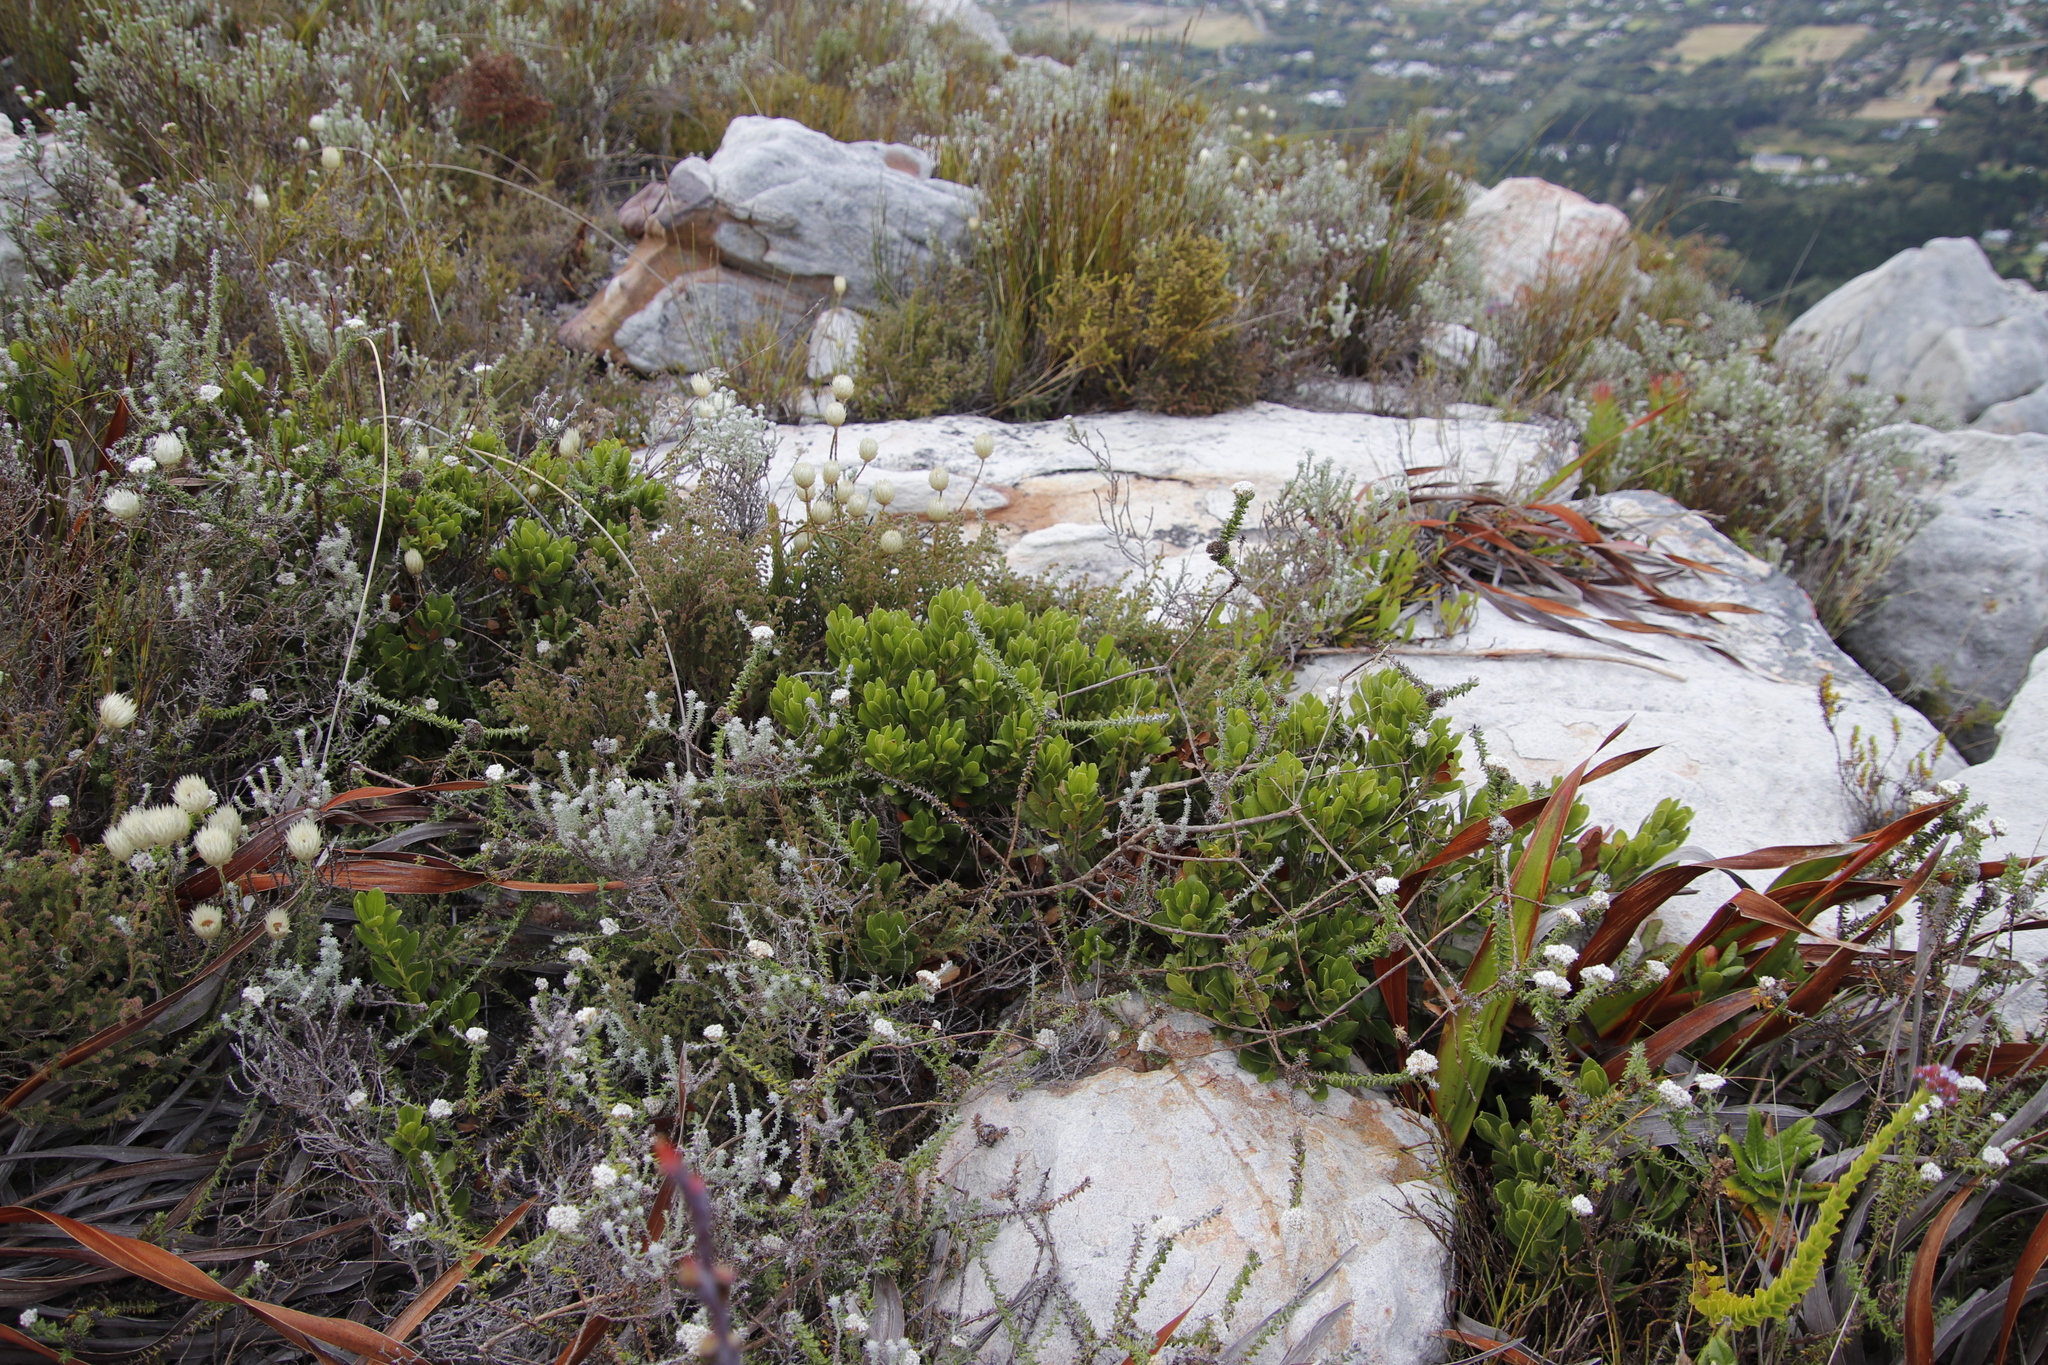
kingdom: Plantae
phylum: Tracheophyta
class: Magnoliopsida
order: Fagales
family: Myricaceae
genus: Morella
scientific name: Morella kraussiana
